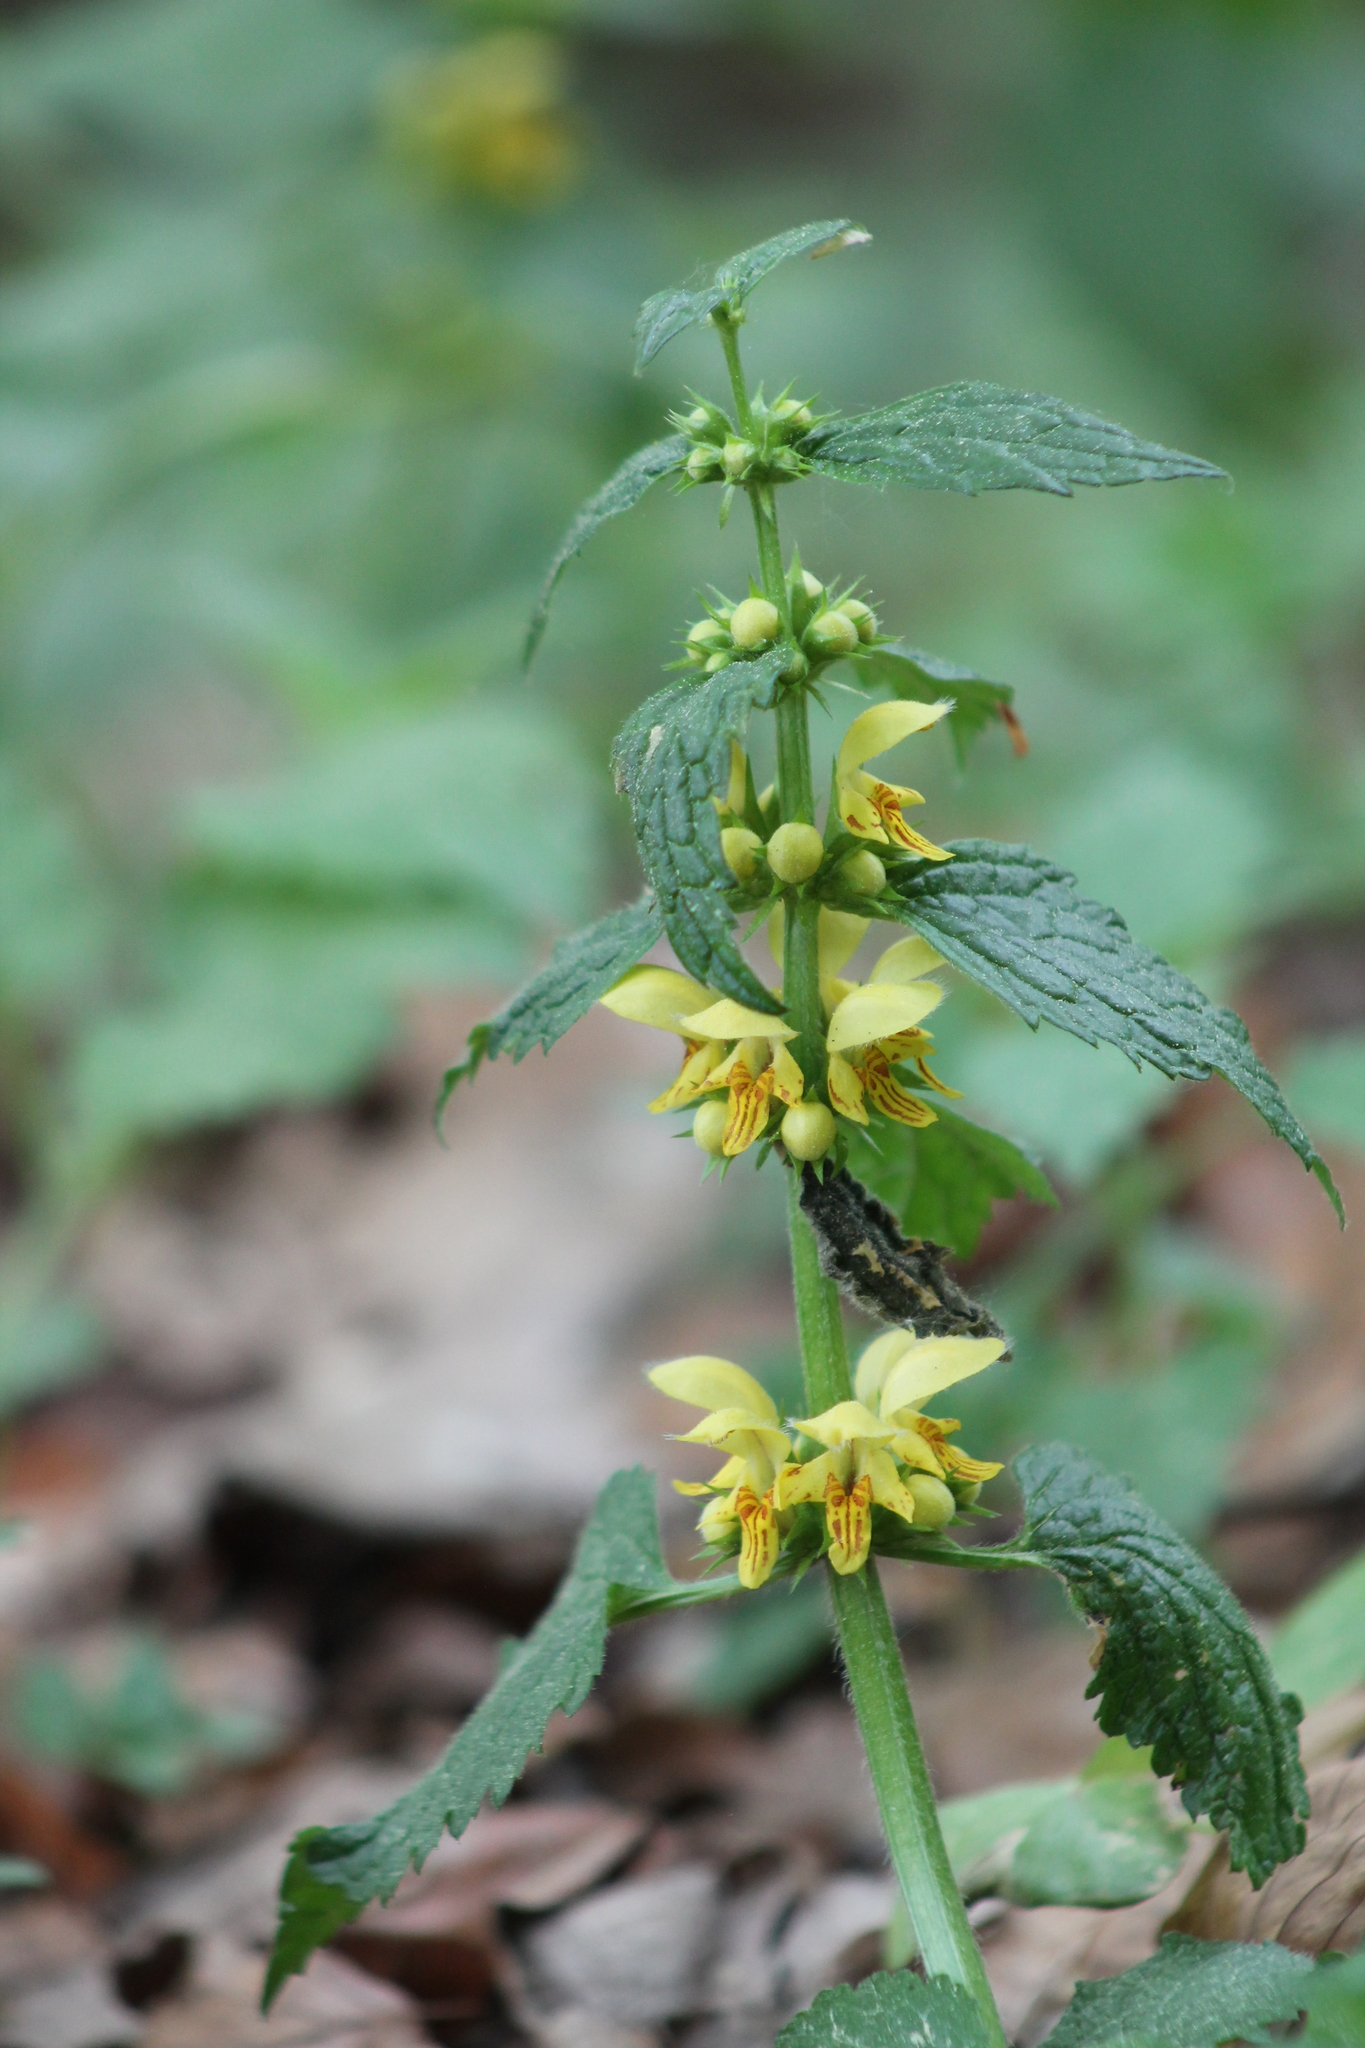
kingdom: Plantae
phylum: Tracheophyta
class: Magnoliopsida
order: Lamiales
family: Lamiaceae
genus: Lamium
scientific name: Lamium galeobdolon
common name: Yellow archangel
